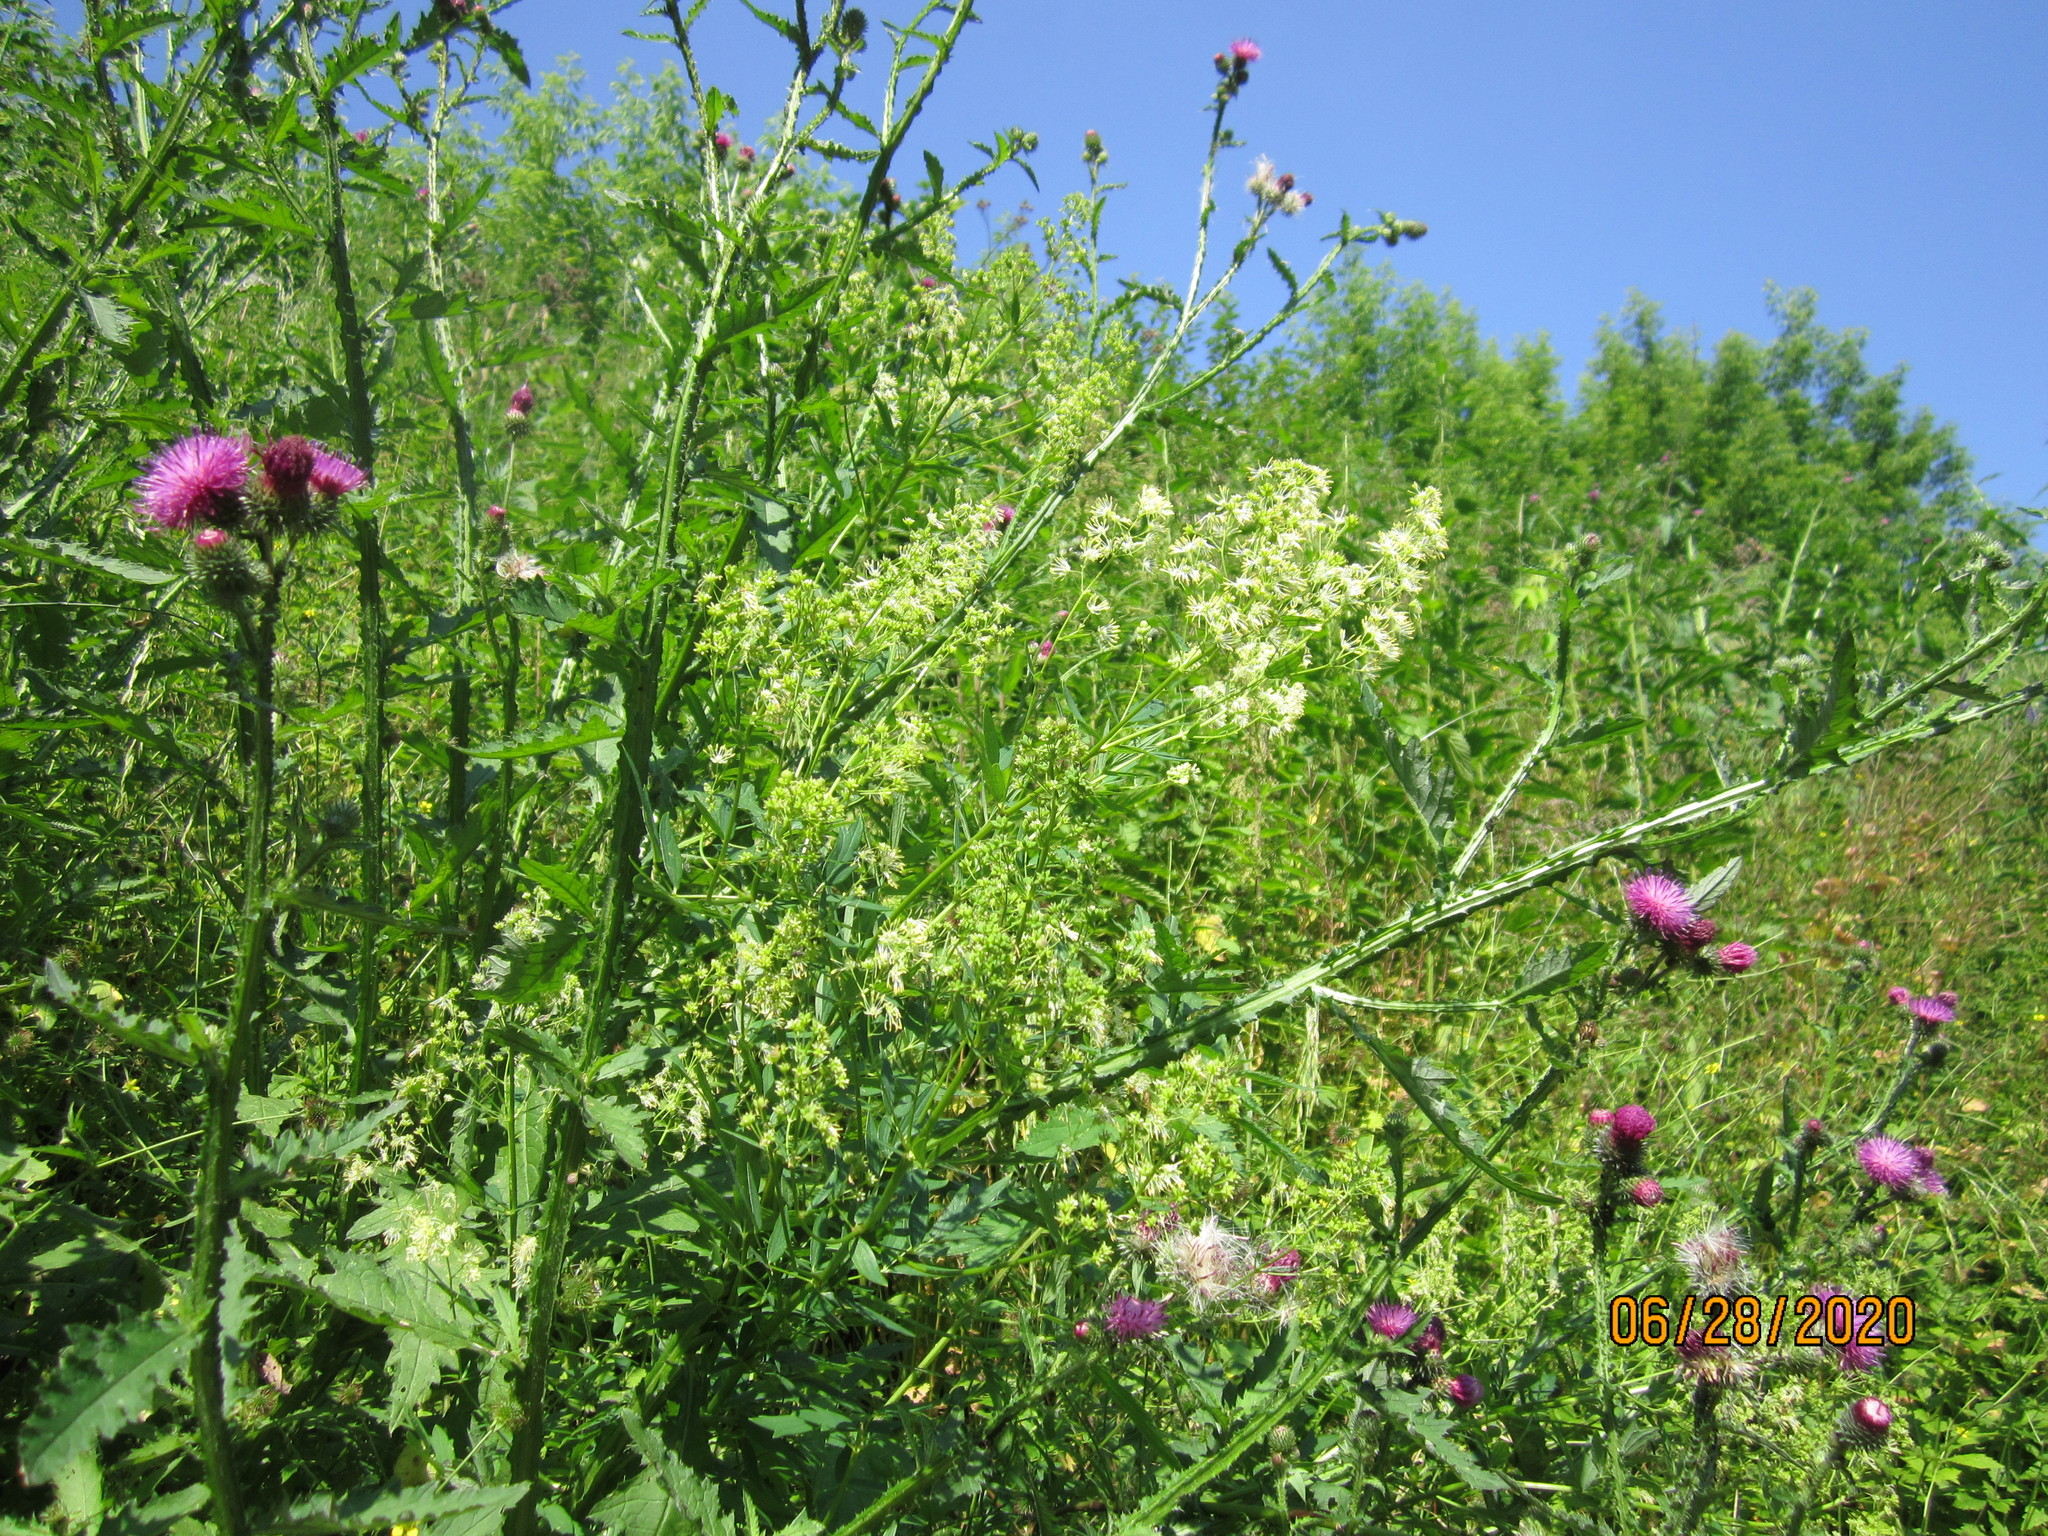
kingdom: Plantae
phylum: Tracheophyta
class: Magnoliopsida
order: Ranunculales
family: Ranunculaceae
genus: Thalictrum
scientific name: Thalictrum flavum
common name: Common meadow-rue
